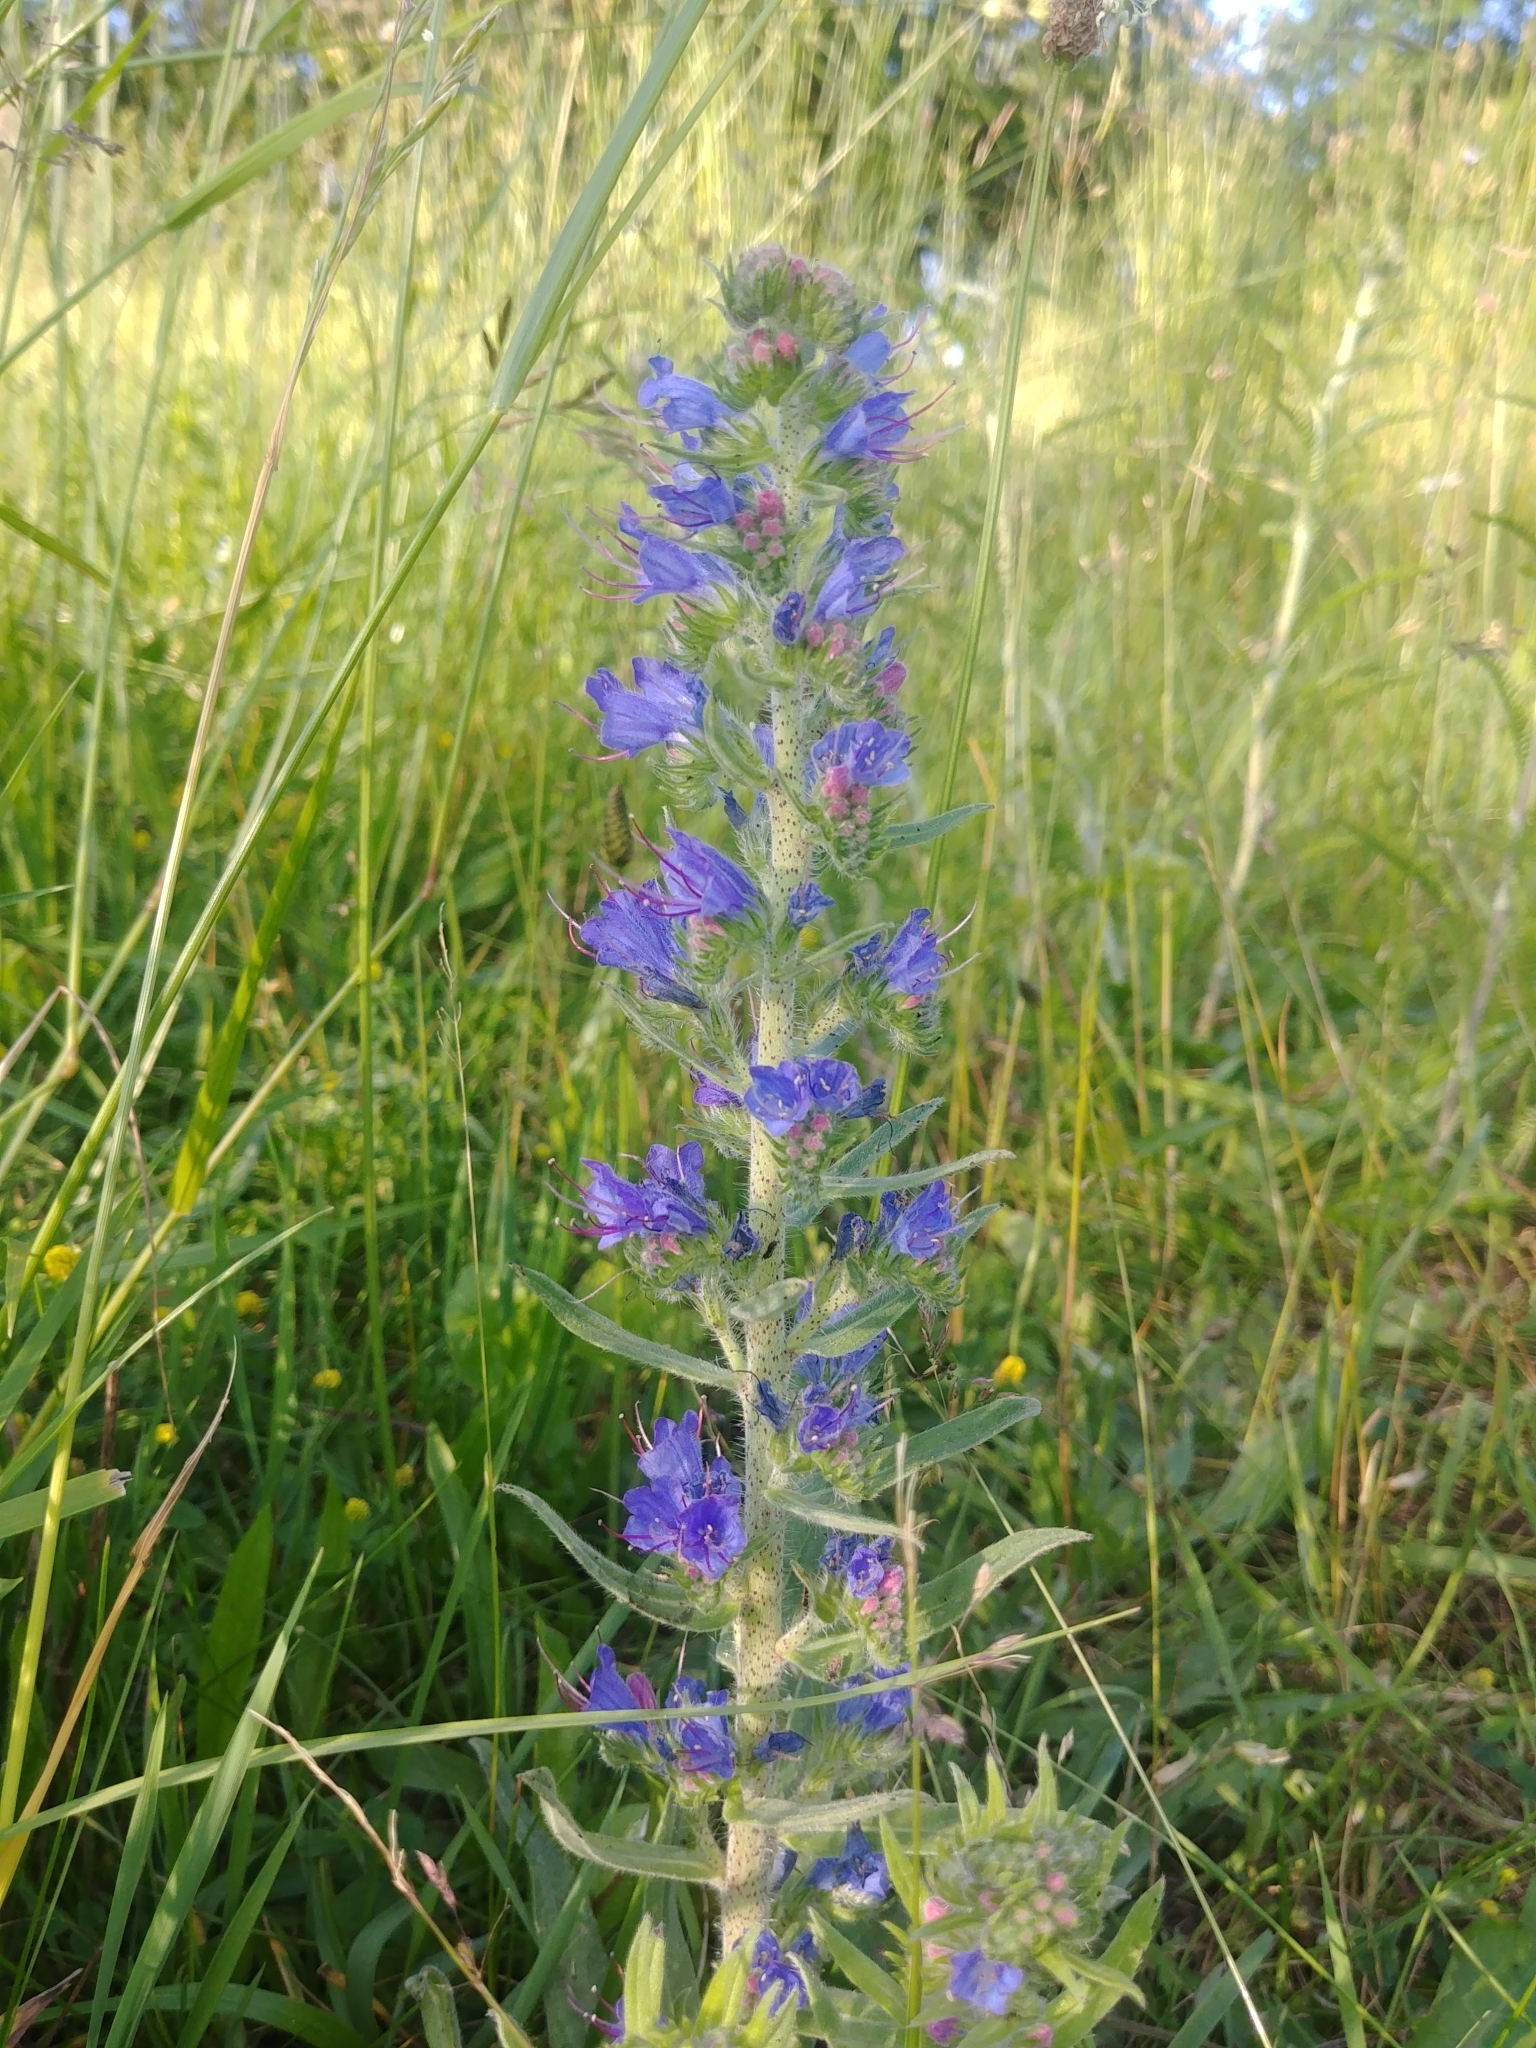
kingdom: Plantae
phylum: Tracheophyta
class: Magnoliopsida
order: Boraginales
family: Boraginaceae
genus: Echium
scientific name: Echium vulgare
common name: Common viper's bugloss
